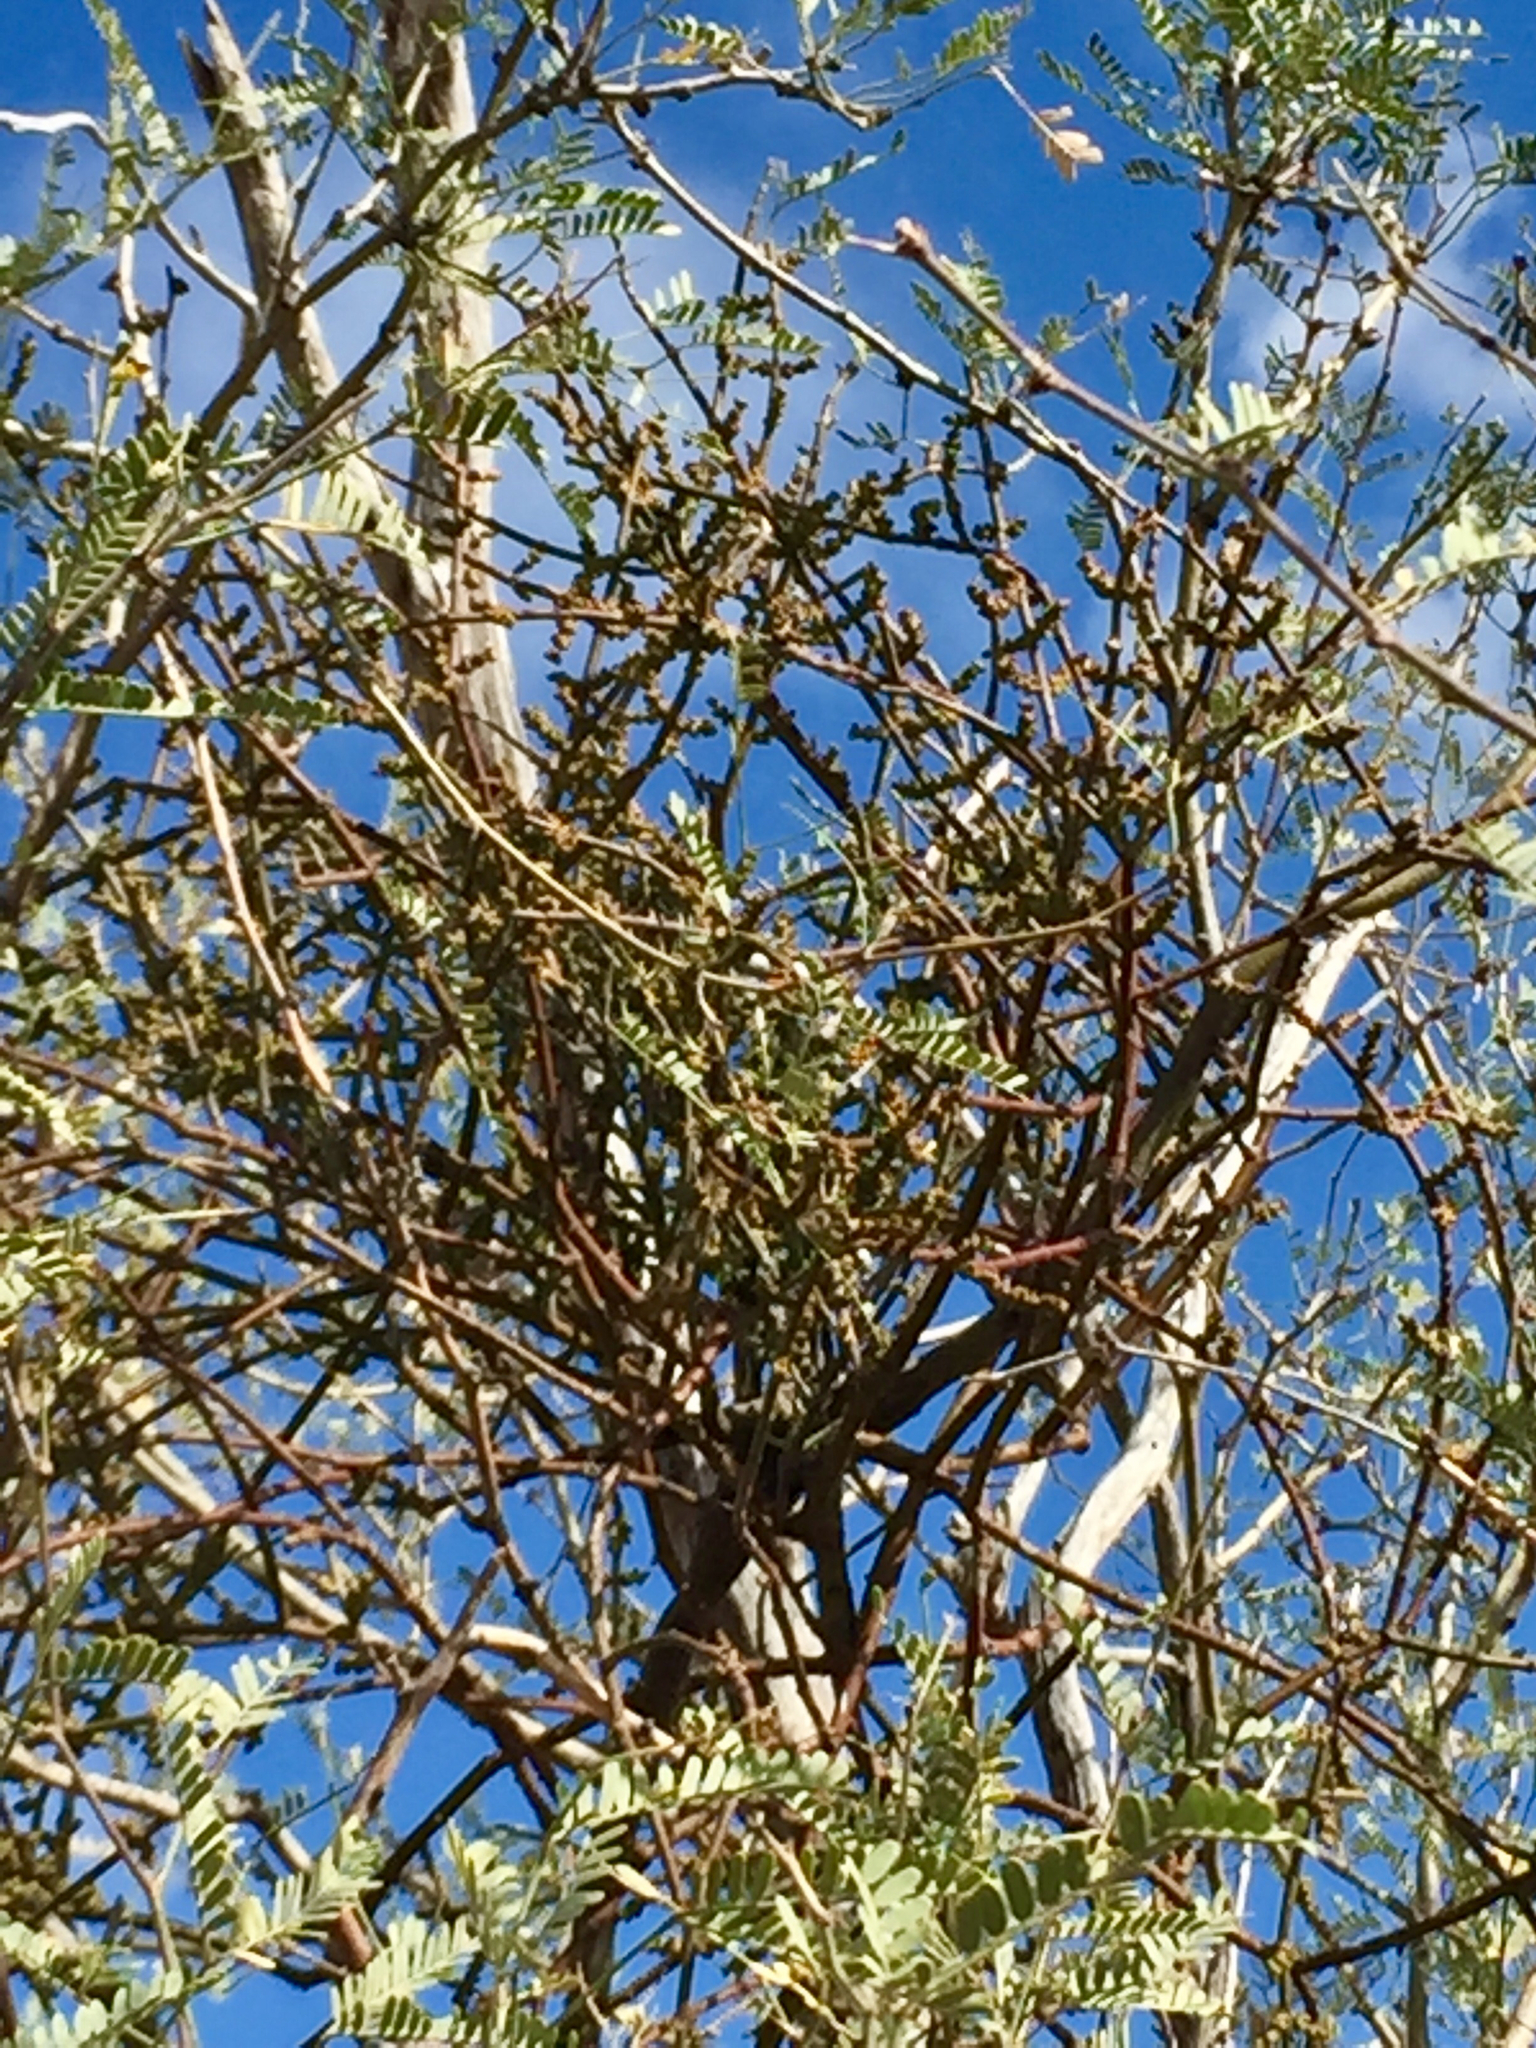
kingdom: Plantae
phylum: Tracheophyta
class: Magnoliopsida
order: Santalales
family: Viscaceae
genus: Phoradendron
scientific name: Phoradendron californicum
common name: Acacia mistletoe
